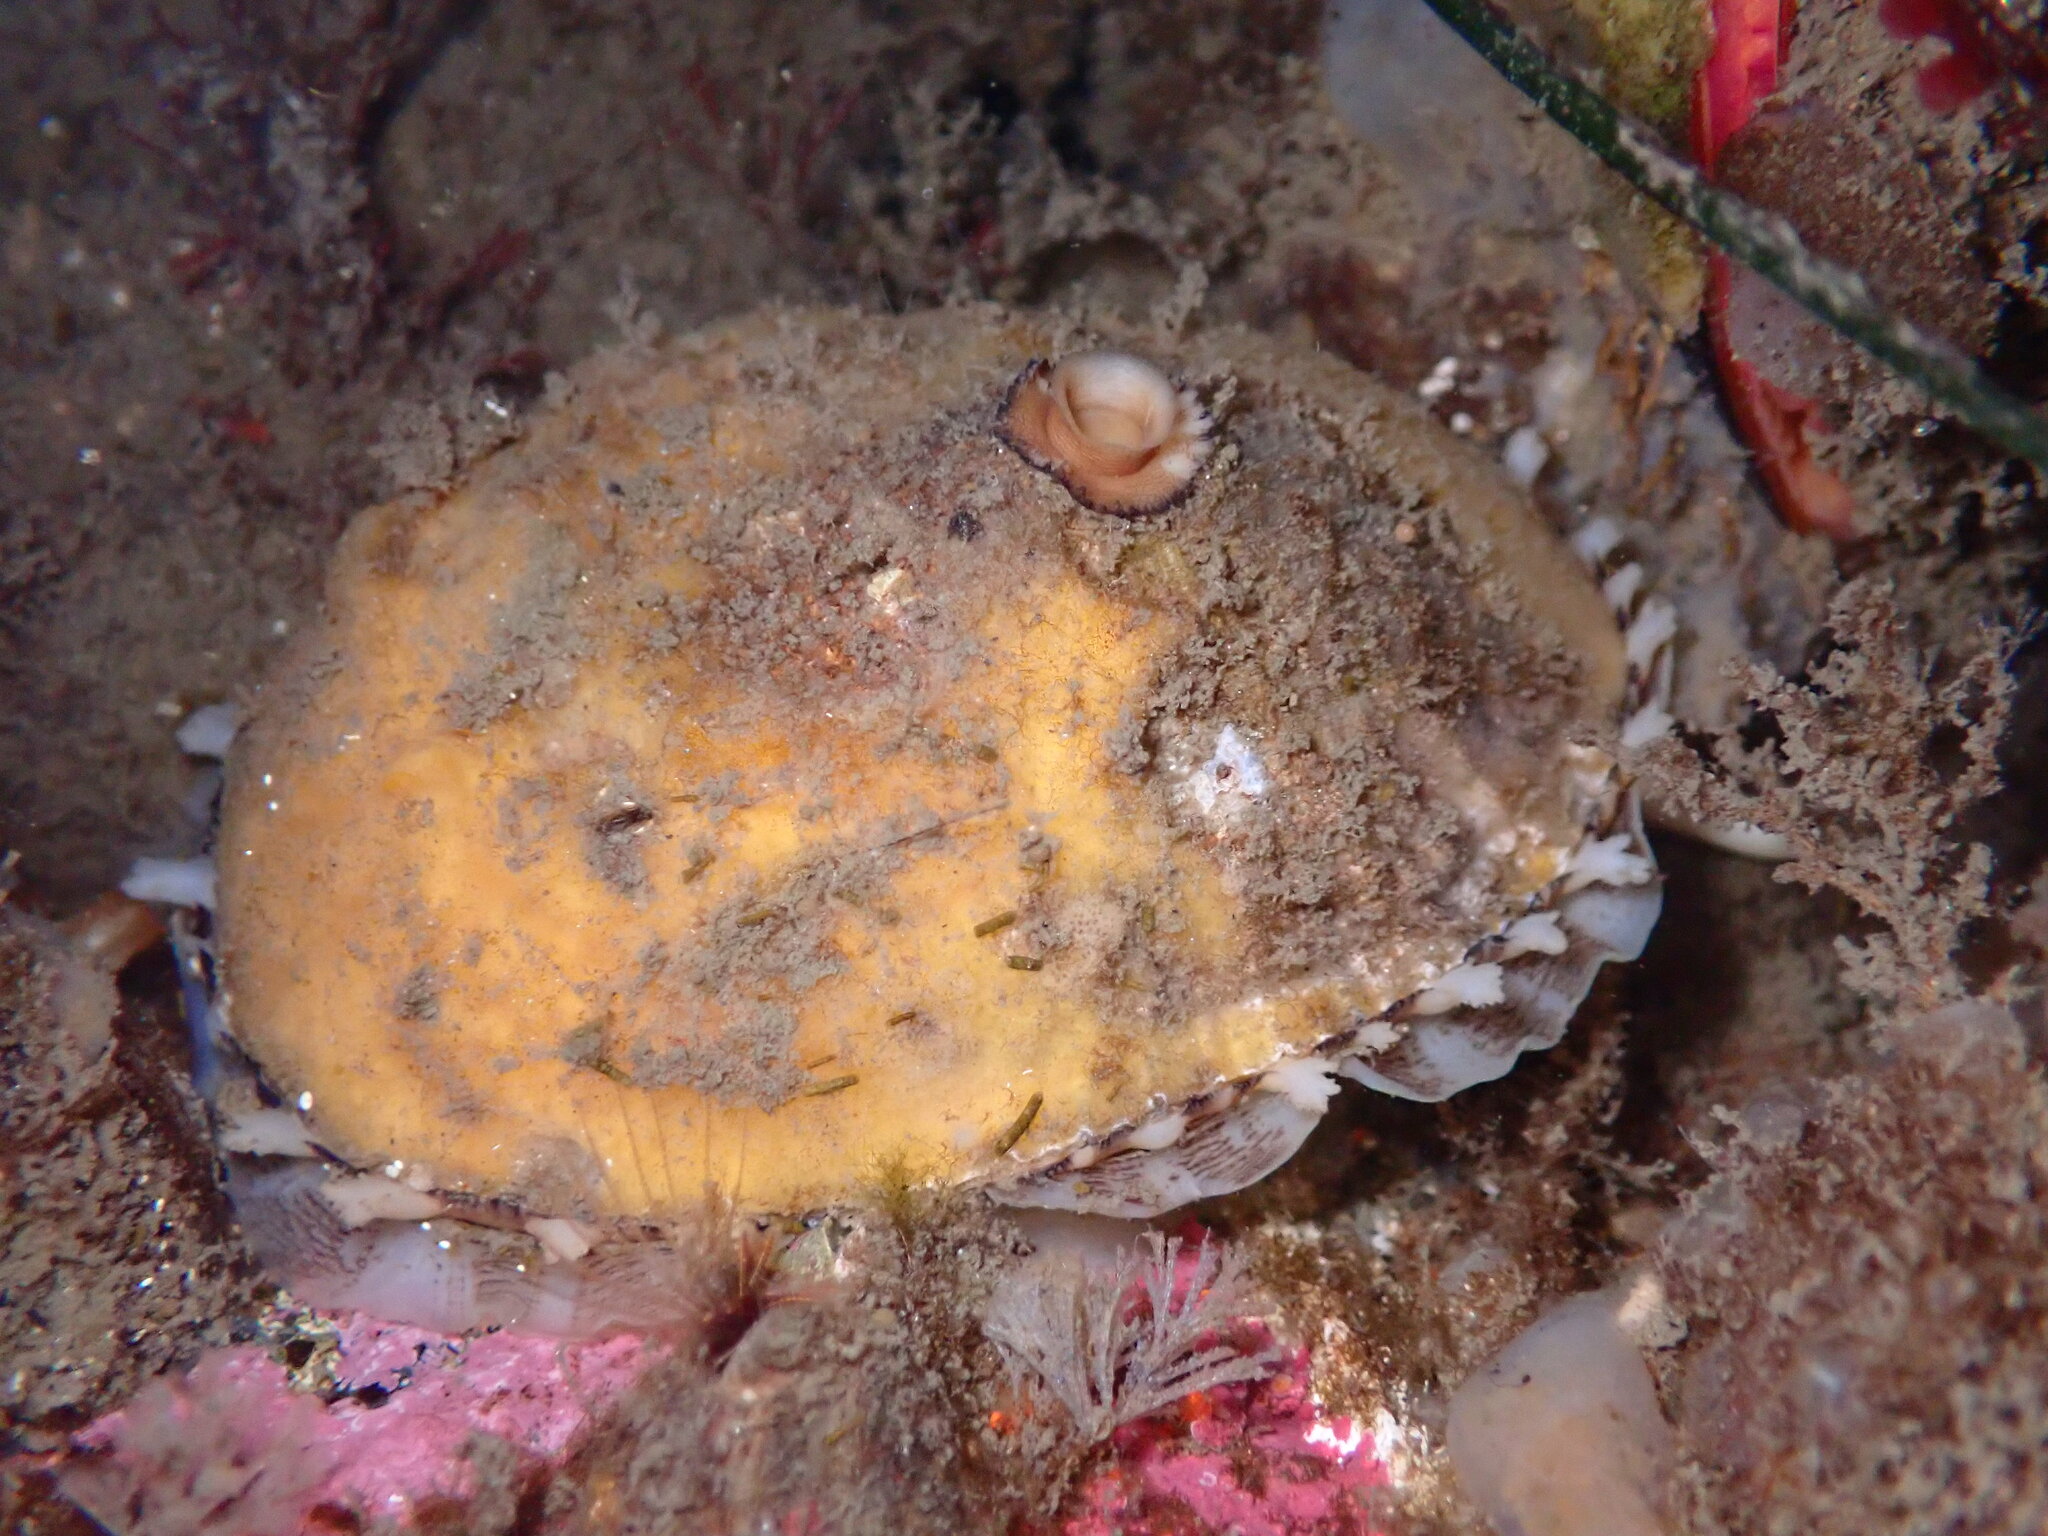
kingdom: Animalia
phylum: Mollusca
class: Gastropoda
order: Lepetellida
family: Fissurellidae
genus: Diodora
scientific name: Diodora aspera
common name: Rough keyhole limpet
